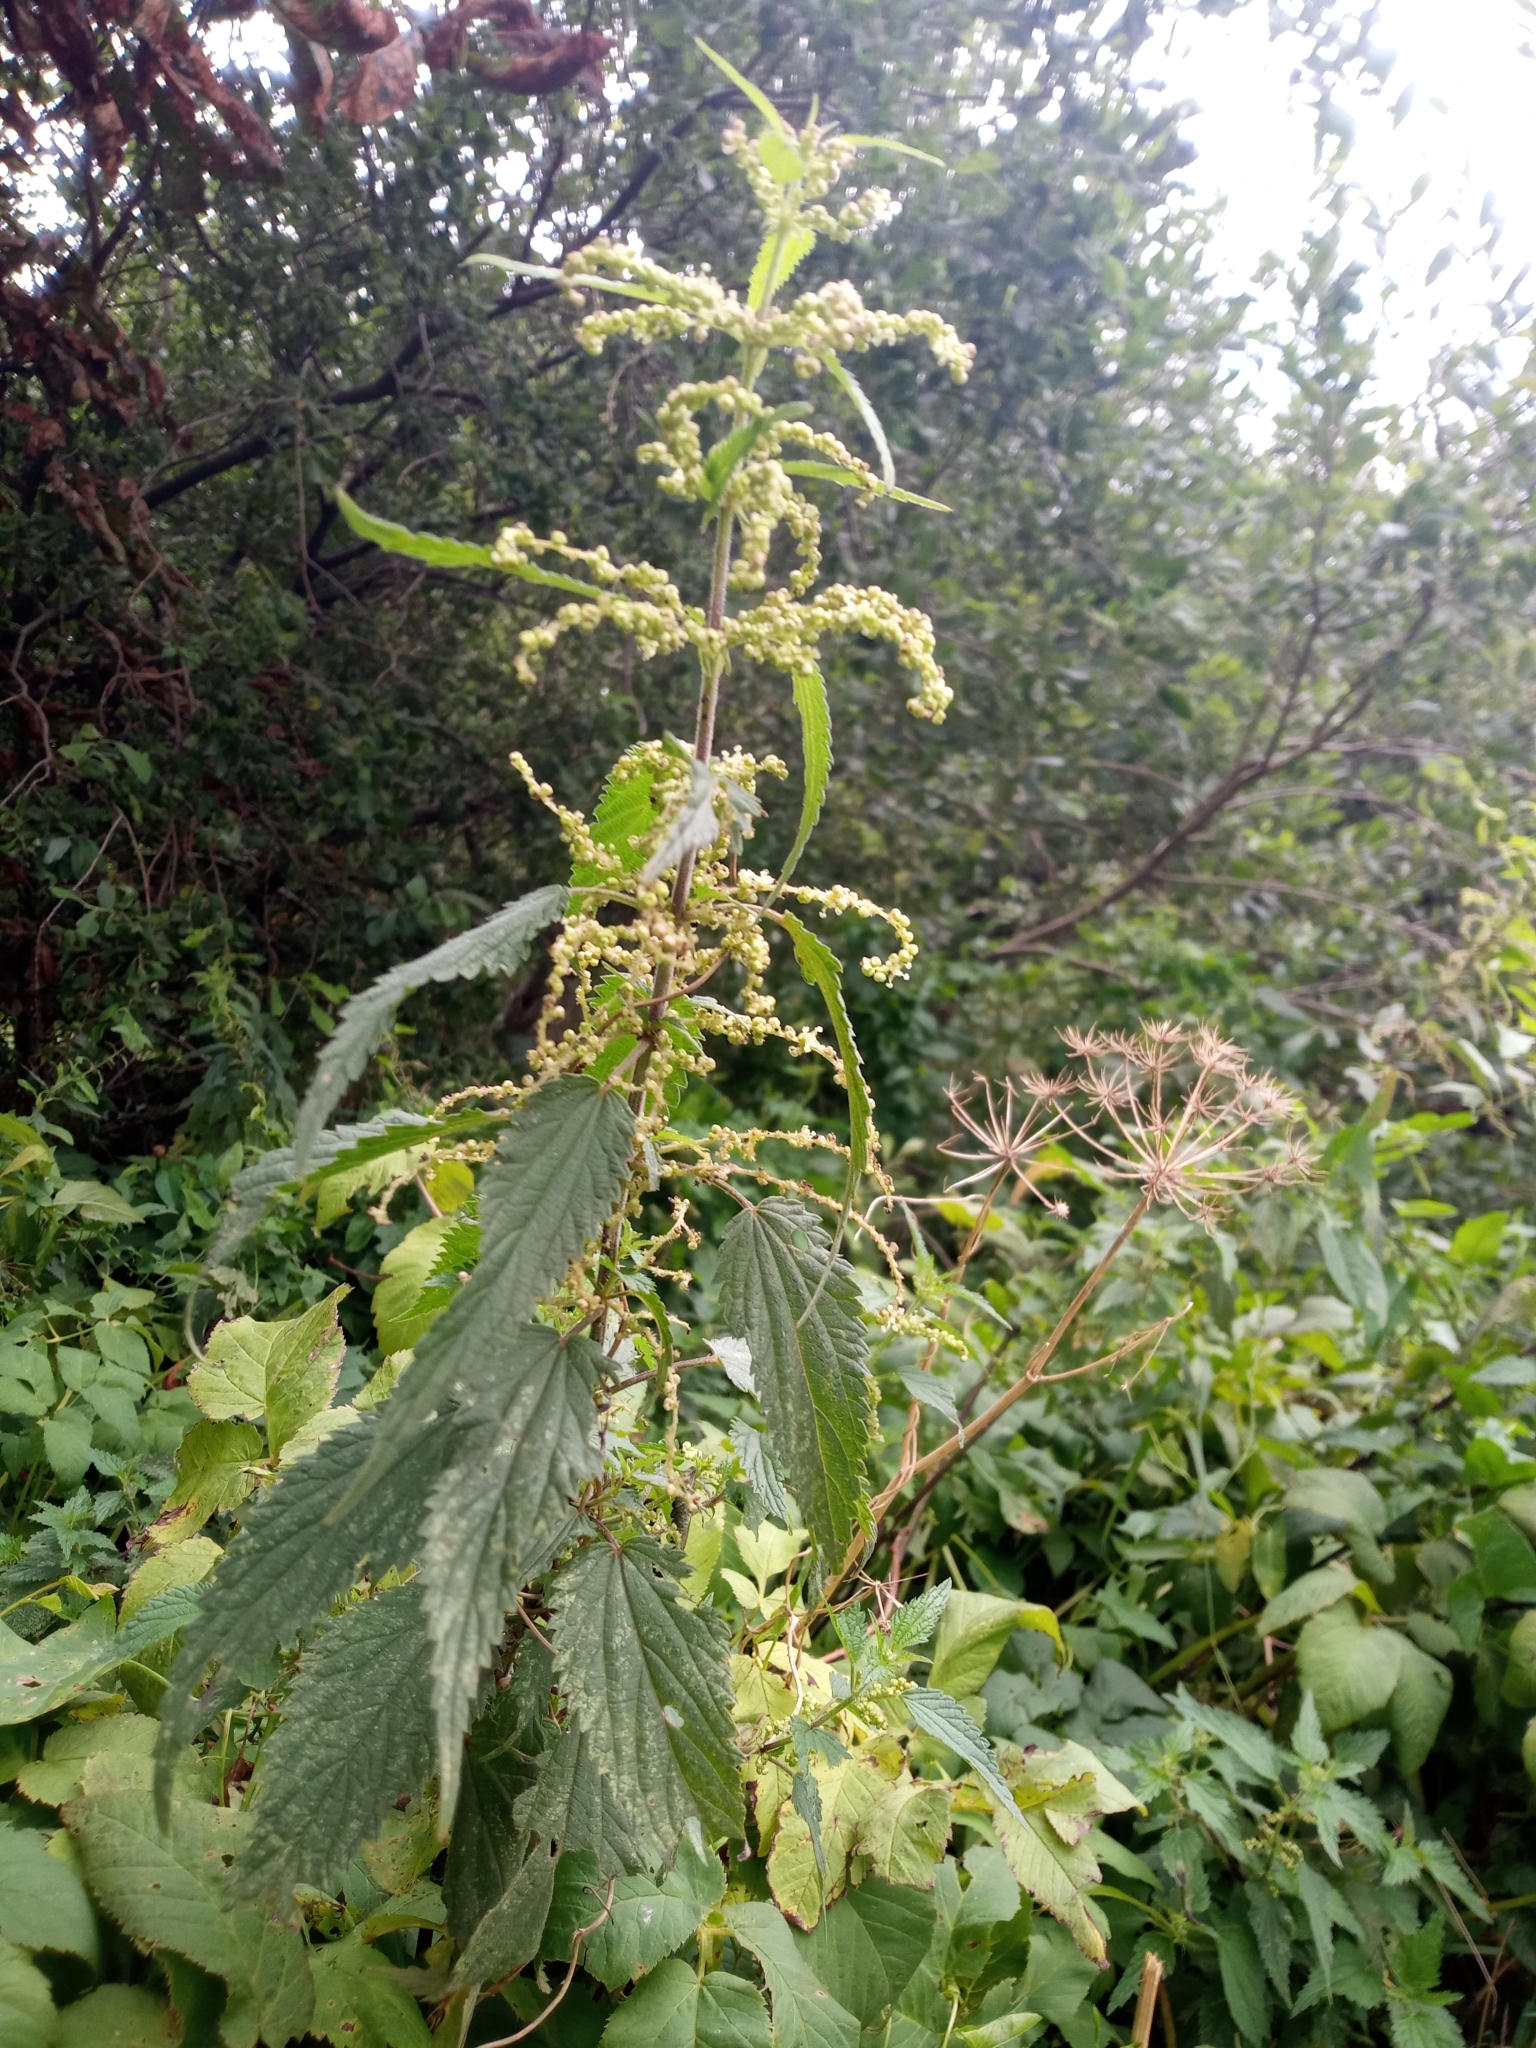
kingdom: Plantae
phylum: Tracheophyta
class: Magnoliopsida
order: Rosales
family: Urticaceae
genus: Urtica
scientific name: Urtica dioica
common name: Common nettle
